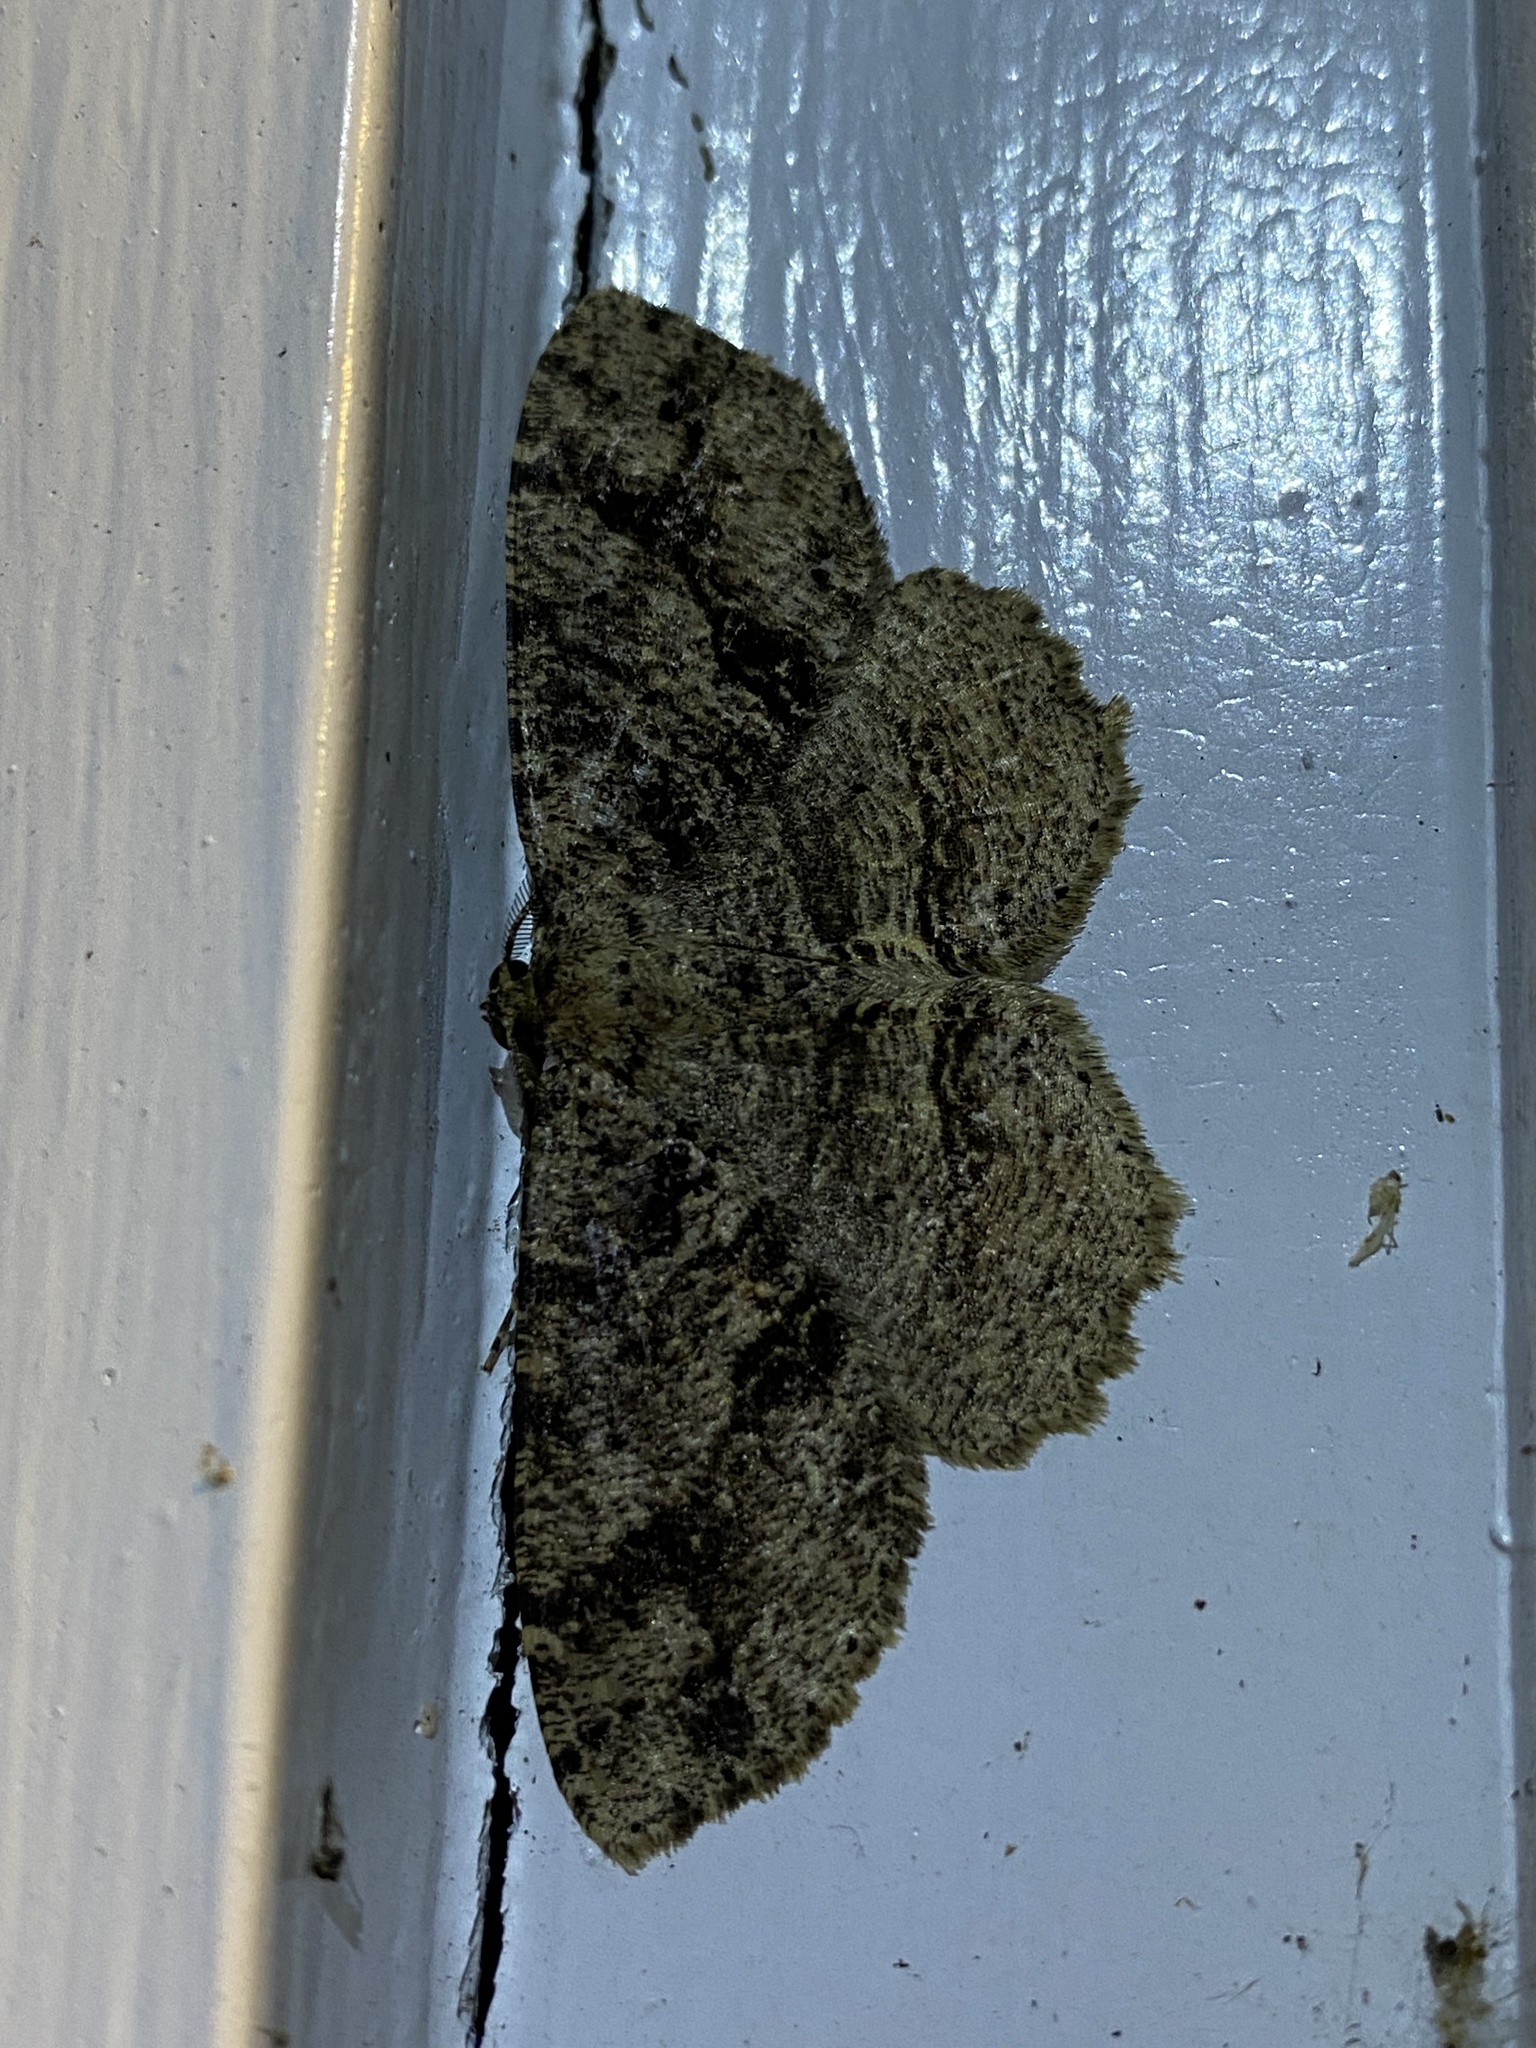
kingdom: Animalia
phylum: Arthropoda
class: Insecta
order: Lepidoptera
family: Geometridae
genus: Melanolophia
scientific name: Melanolophia canadaria
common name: Canadian melanolophia
